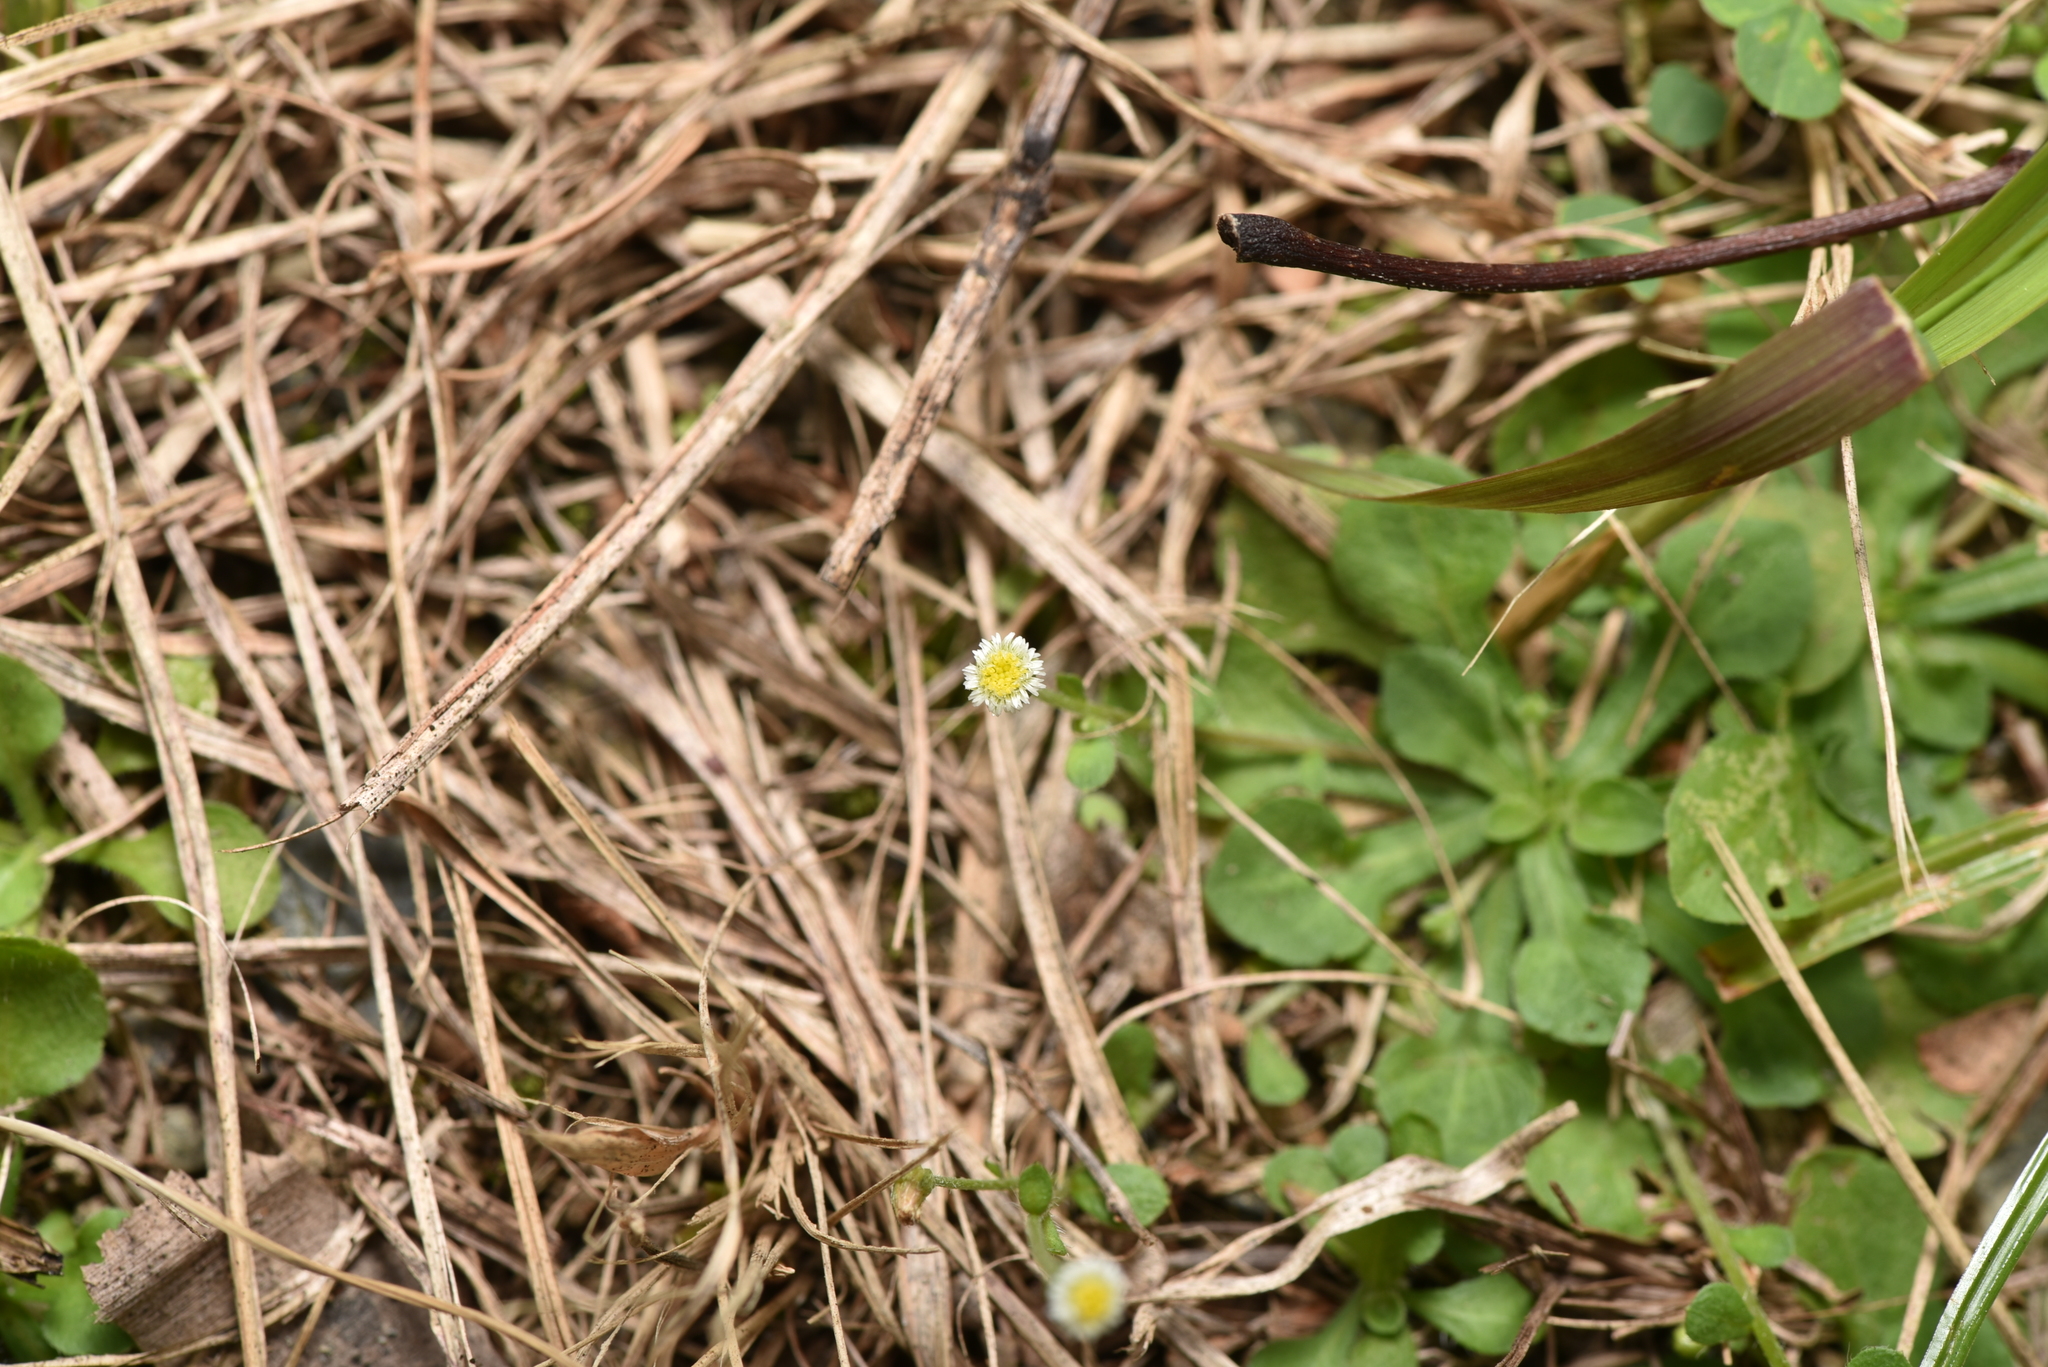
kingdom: Plantae
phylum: Tracheophyta
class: Magnoliopsida
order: Asterales
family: Asteraceae
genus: Erigeron
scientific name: Erigeron bellioides
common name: Bellorita
